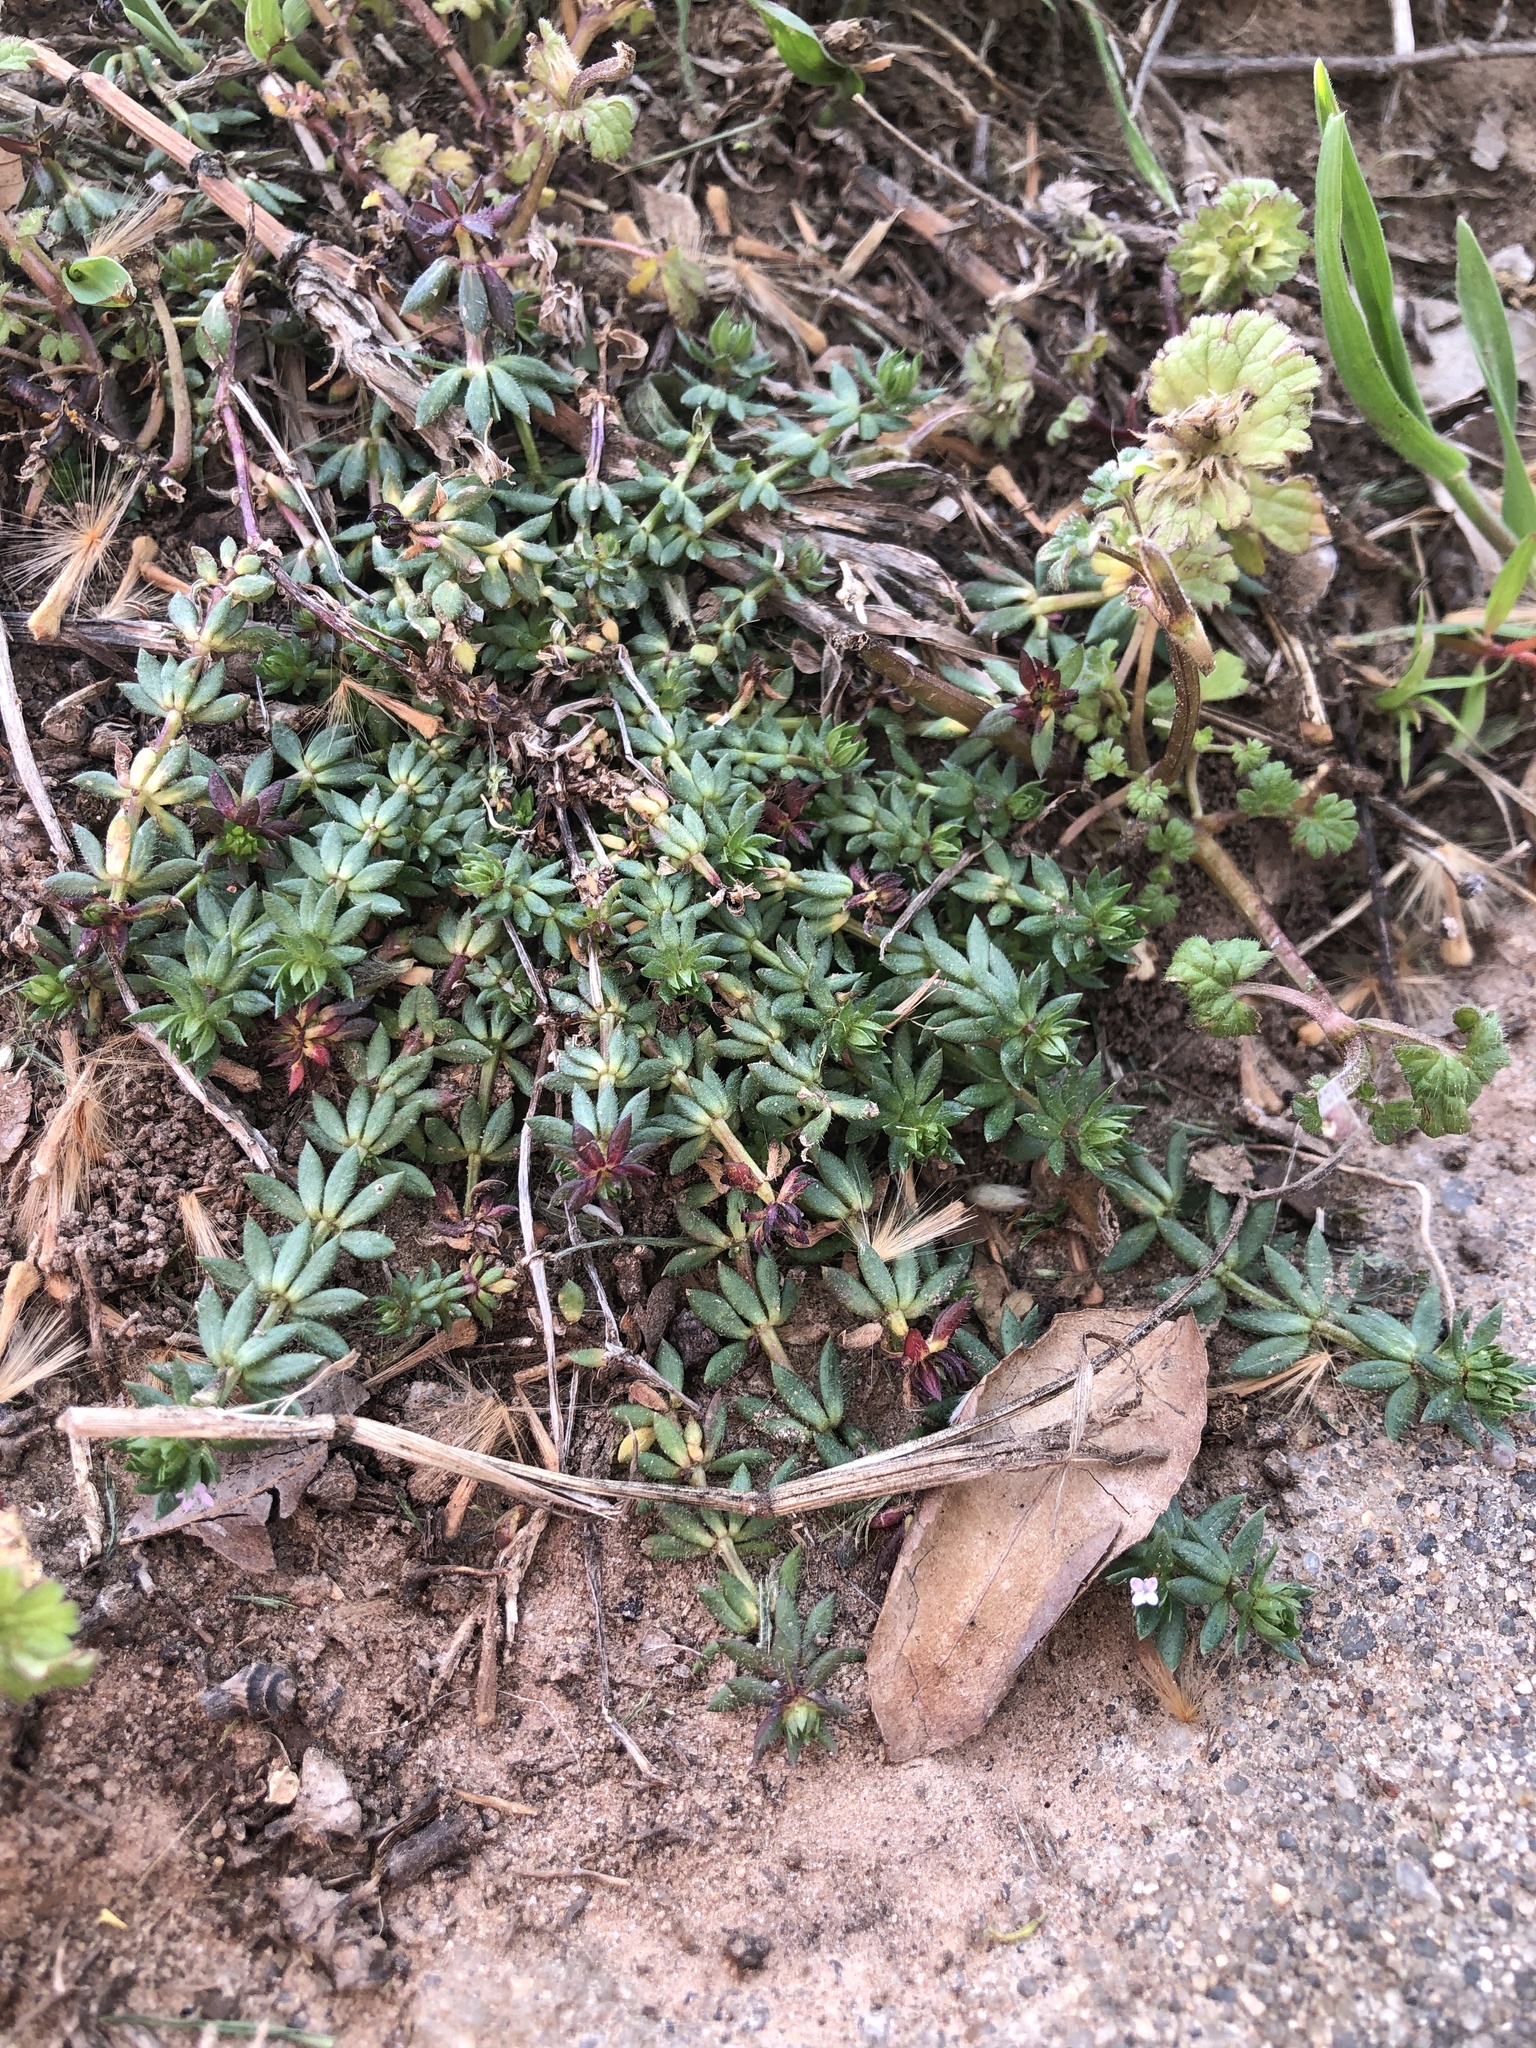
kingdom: Plantae
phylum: Tracheophyta
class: Magnoliopsida
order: Gentianales
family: Rubiaceae
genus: Sherardia
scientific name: Sherardia arvensis
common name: Field madder
